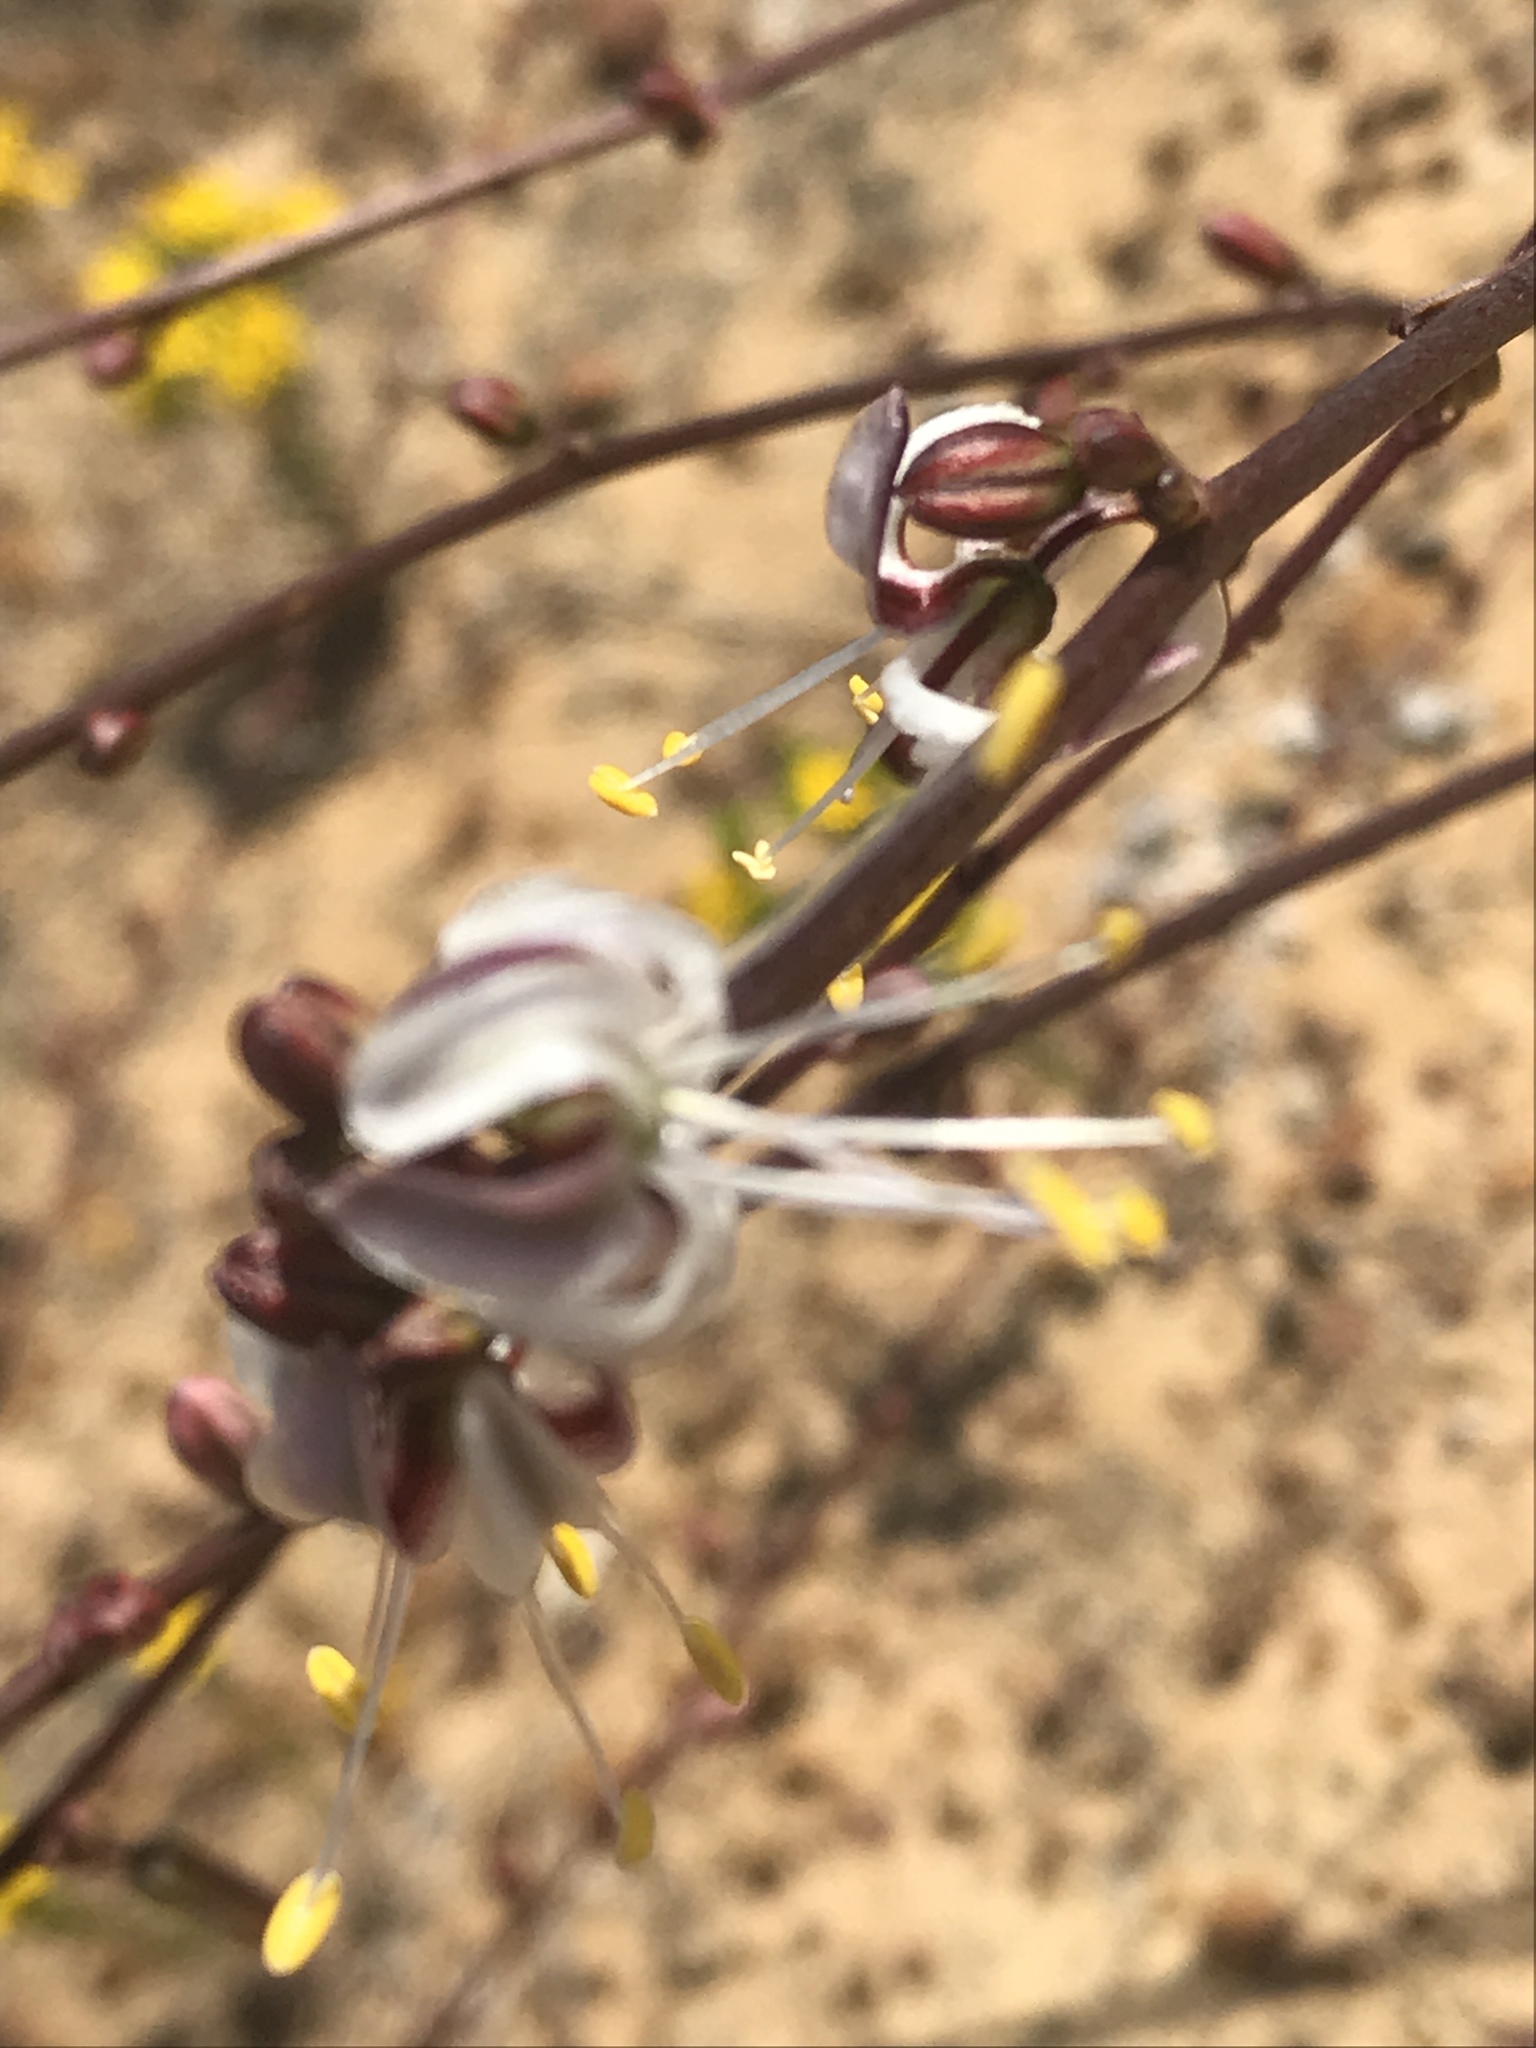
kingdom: Plantae
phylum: Tracheophyta
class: Liliopsida
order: Asparagales
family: Asparagaceae
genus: Hooveria
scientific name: Hooveria parviflora
